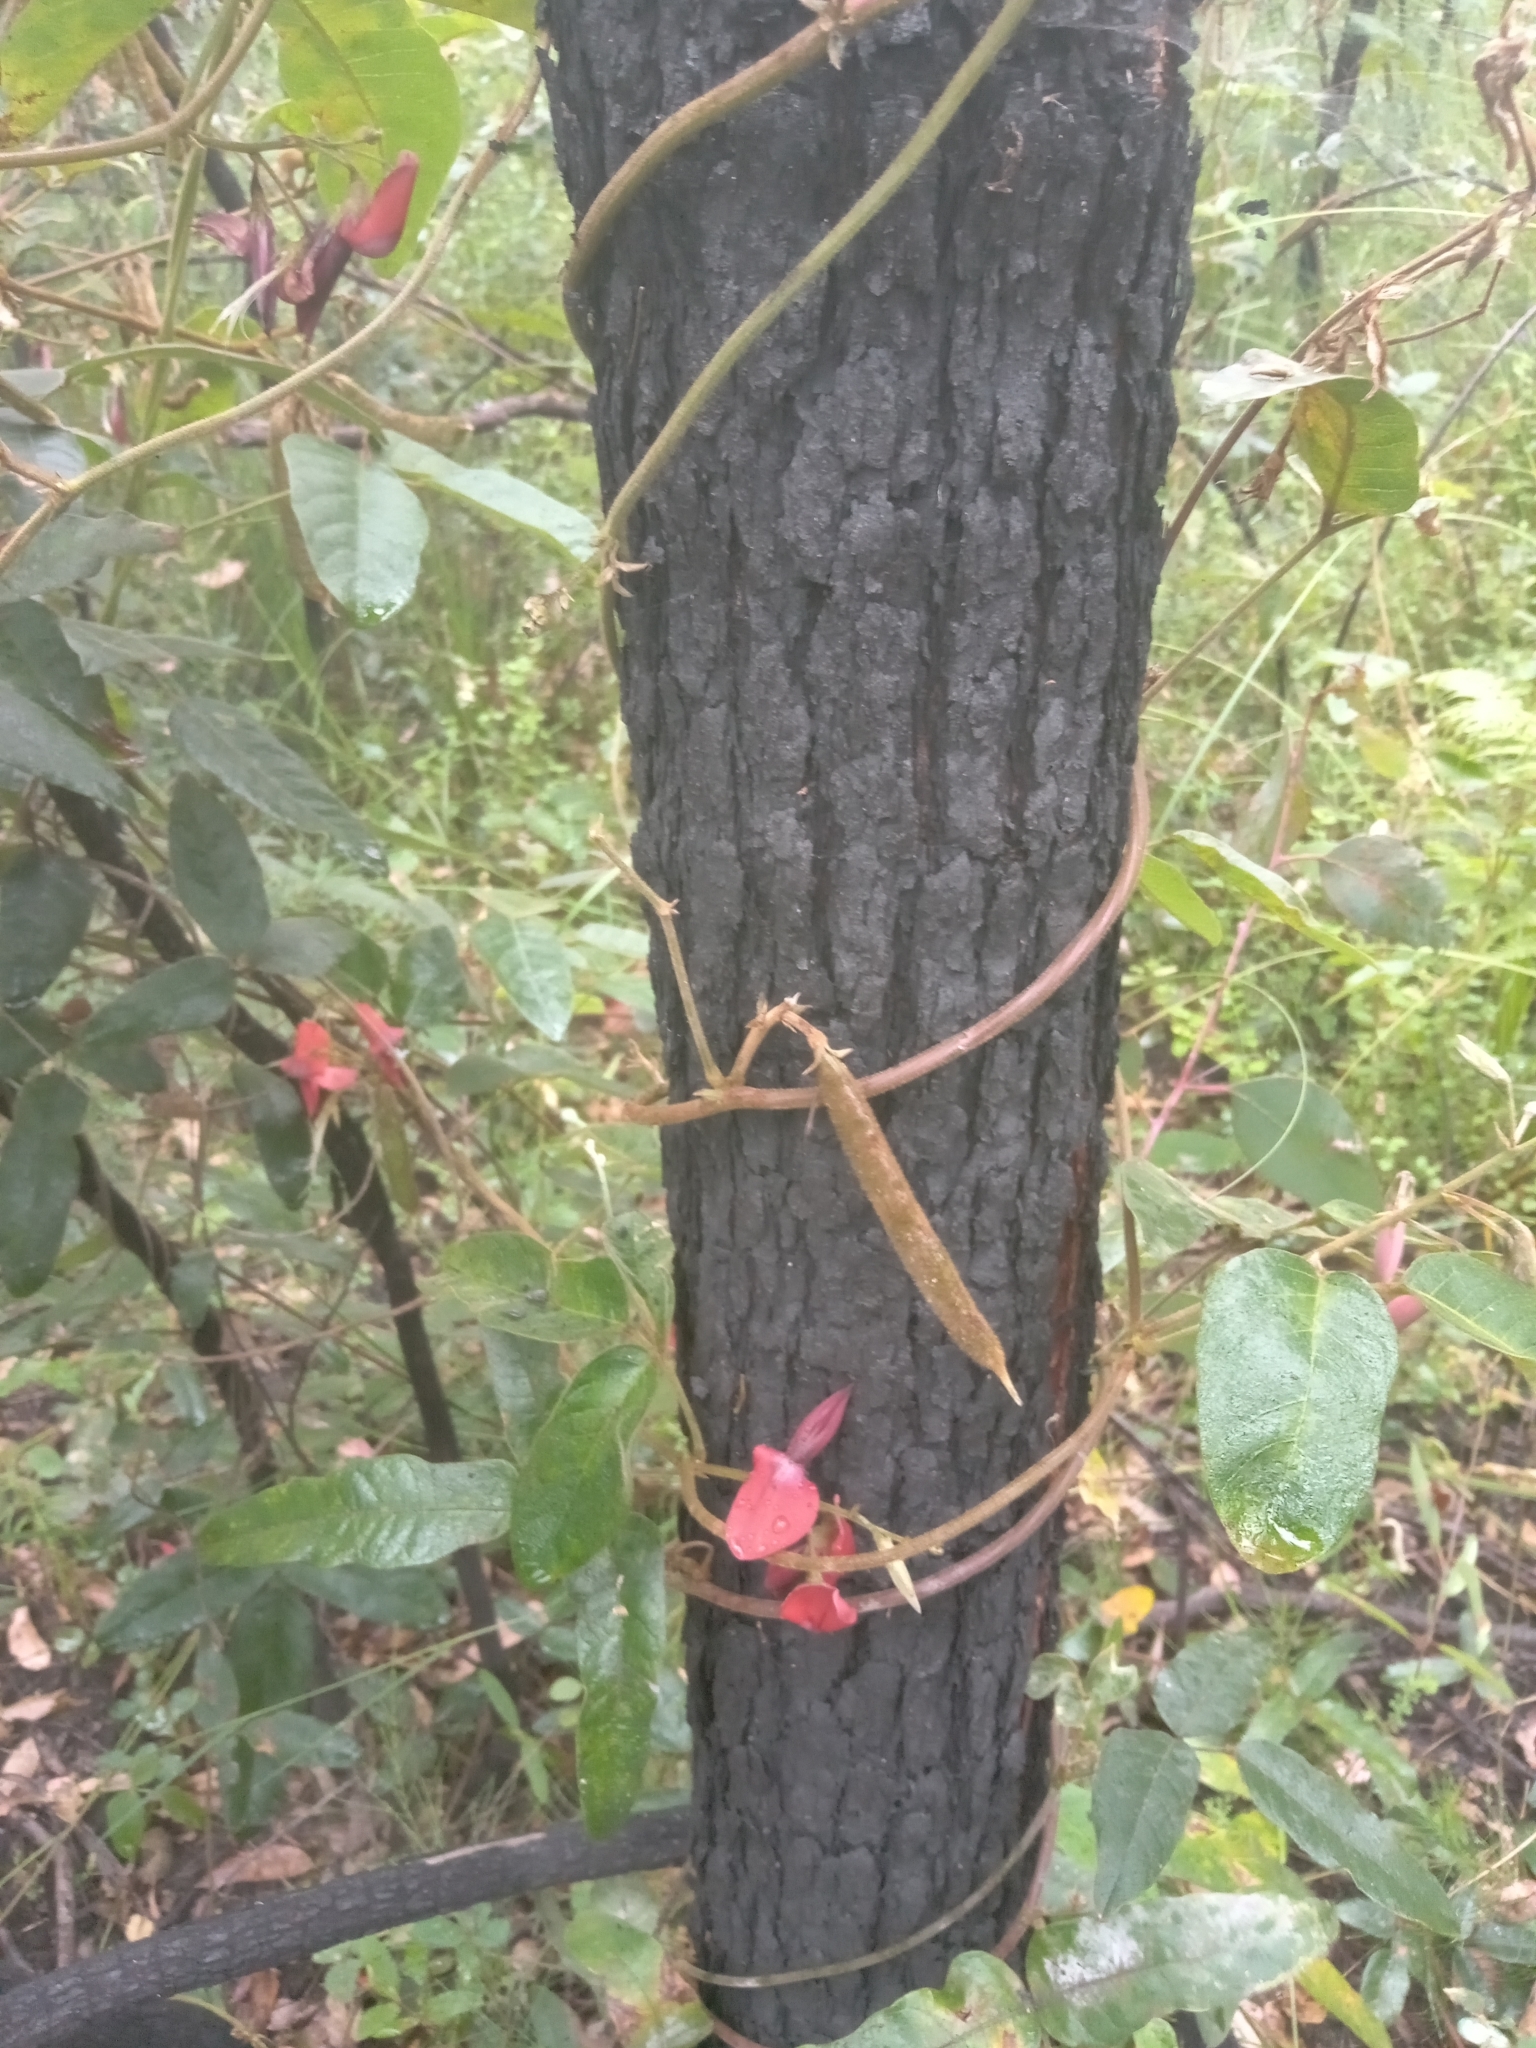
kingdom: Plantae
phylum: Tracheophyta
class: Magnoliopsida
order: Fabales
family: Fabaceae
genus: Kennedia
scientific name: Kennedia rubicunda
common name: Red kennedy-pea
